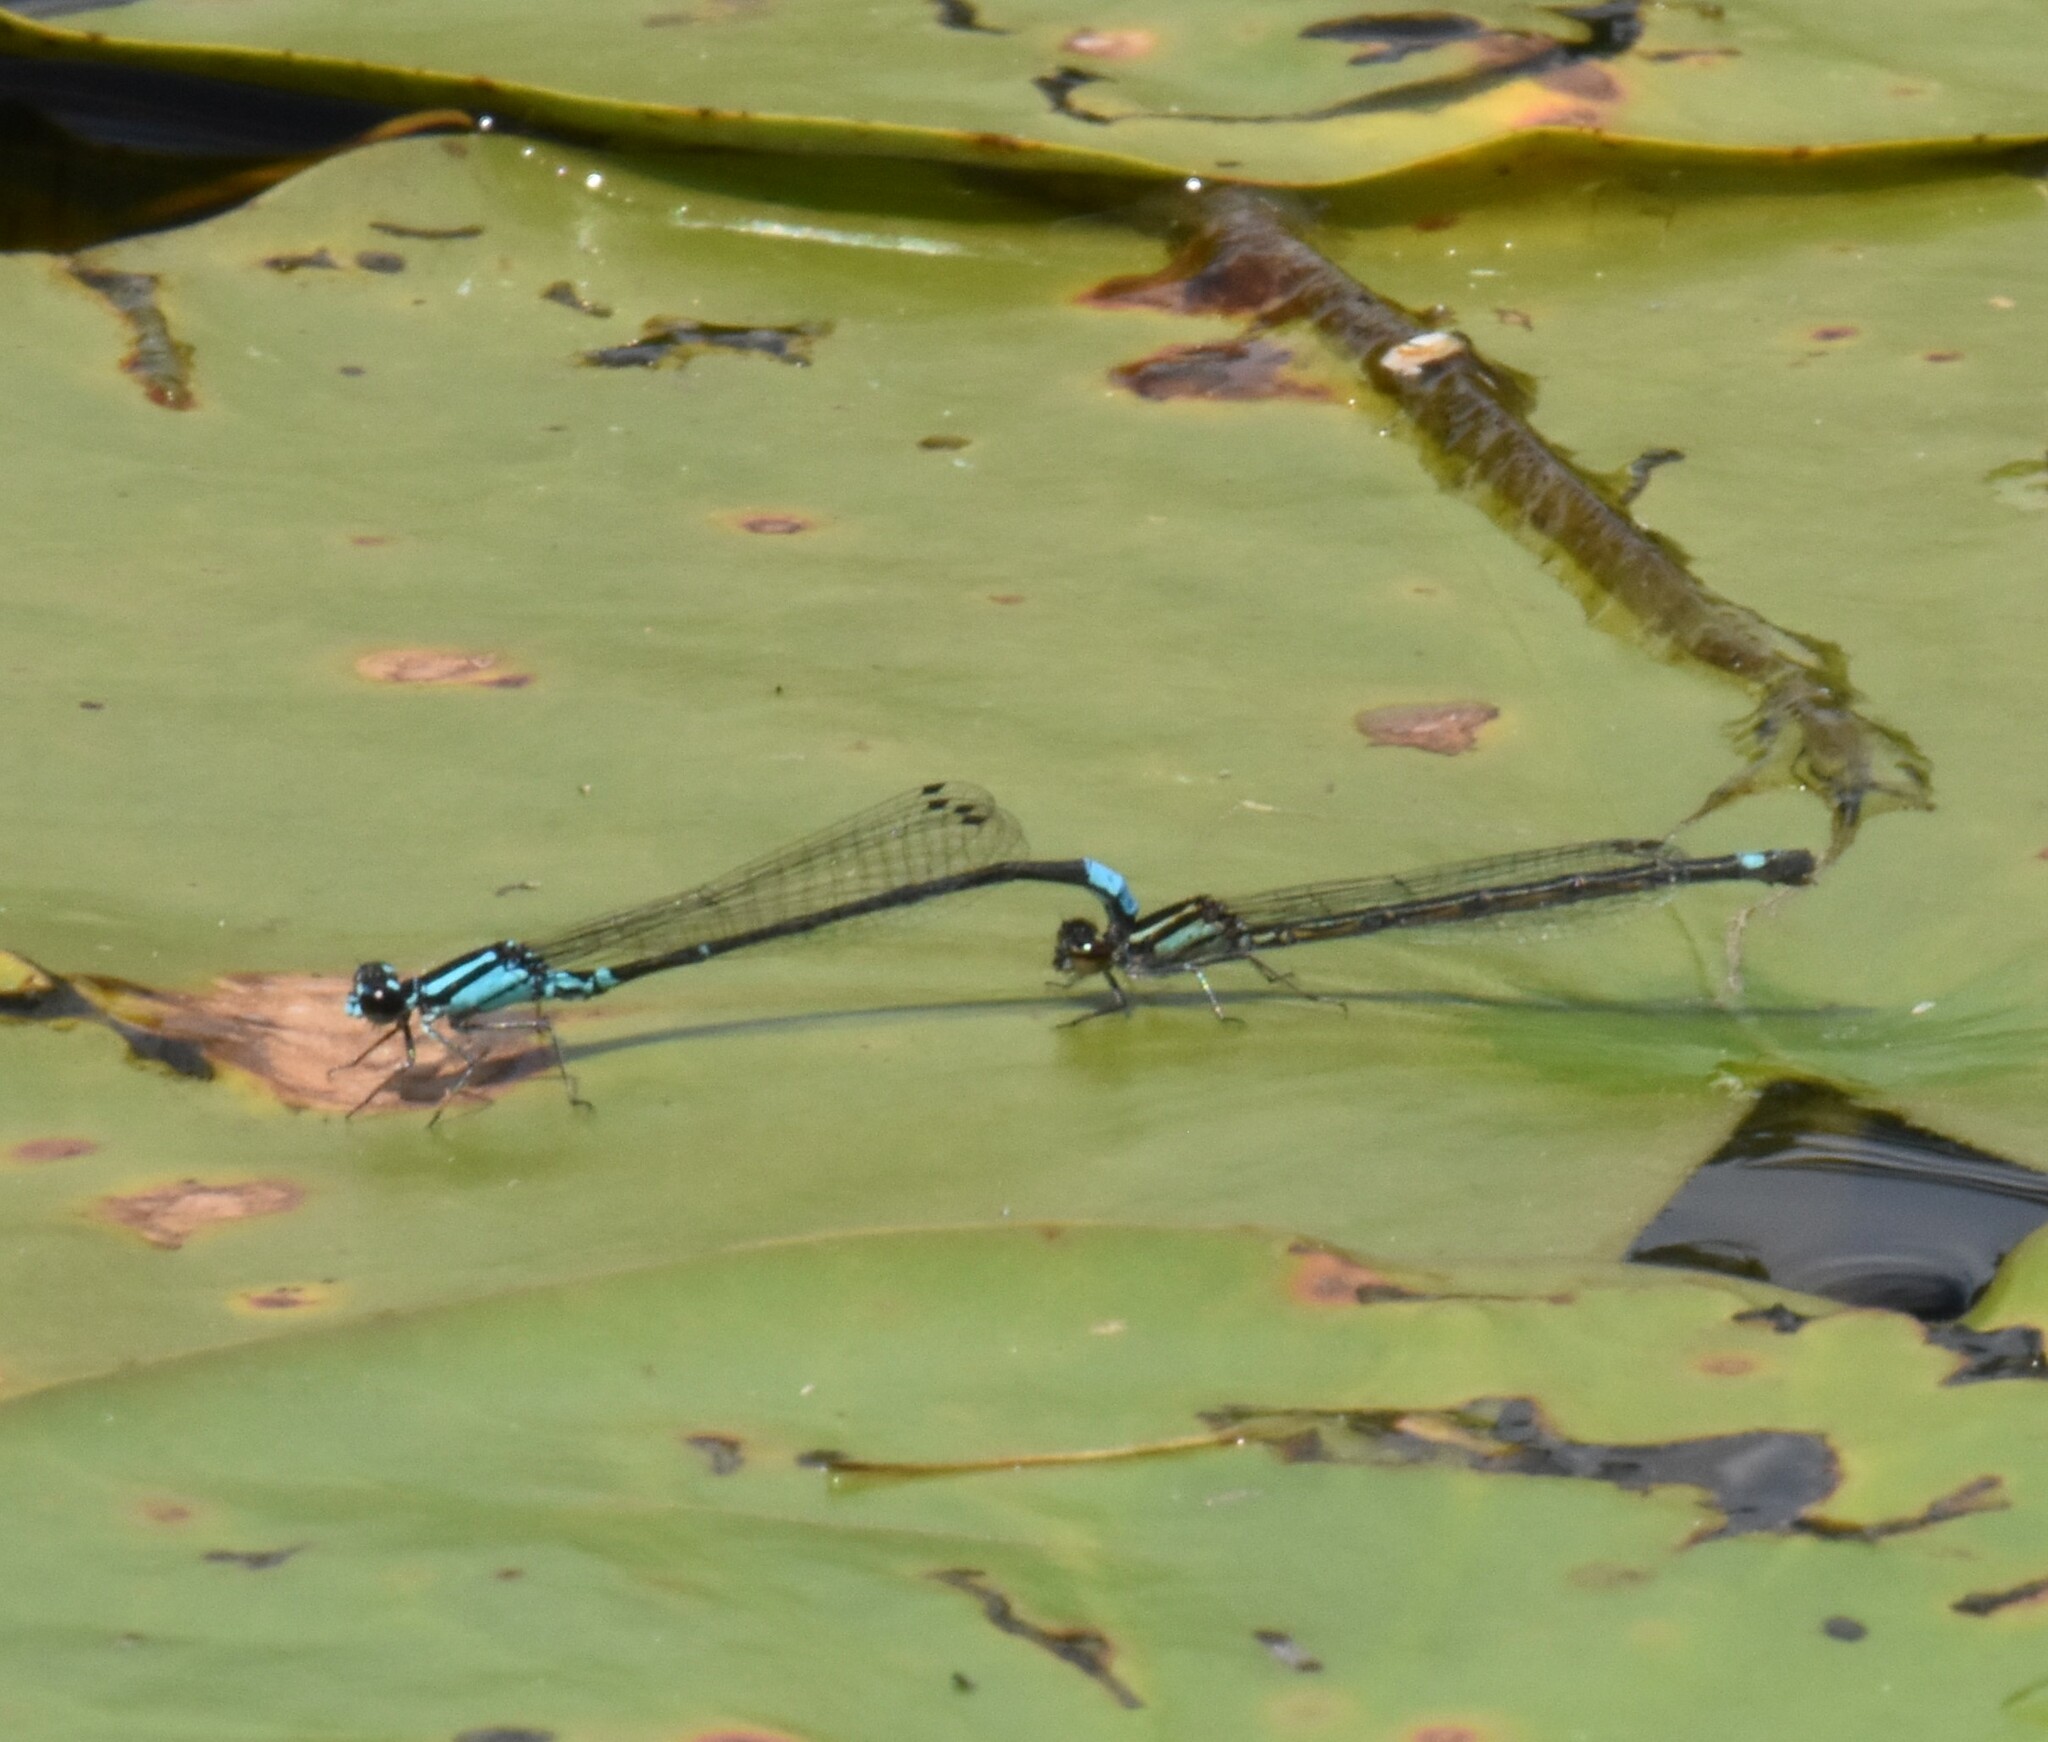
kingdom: Animalia
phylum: Arthropoda
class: Insecta
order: Odonata
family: Coenagrionidae
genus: Enallagma
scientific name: Enallagma geminatum
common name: Skimming bluet
